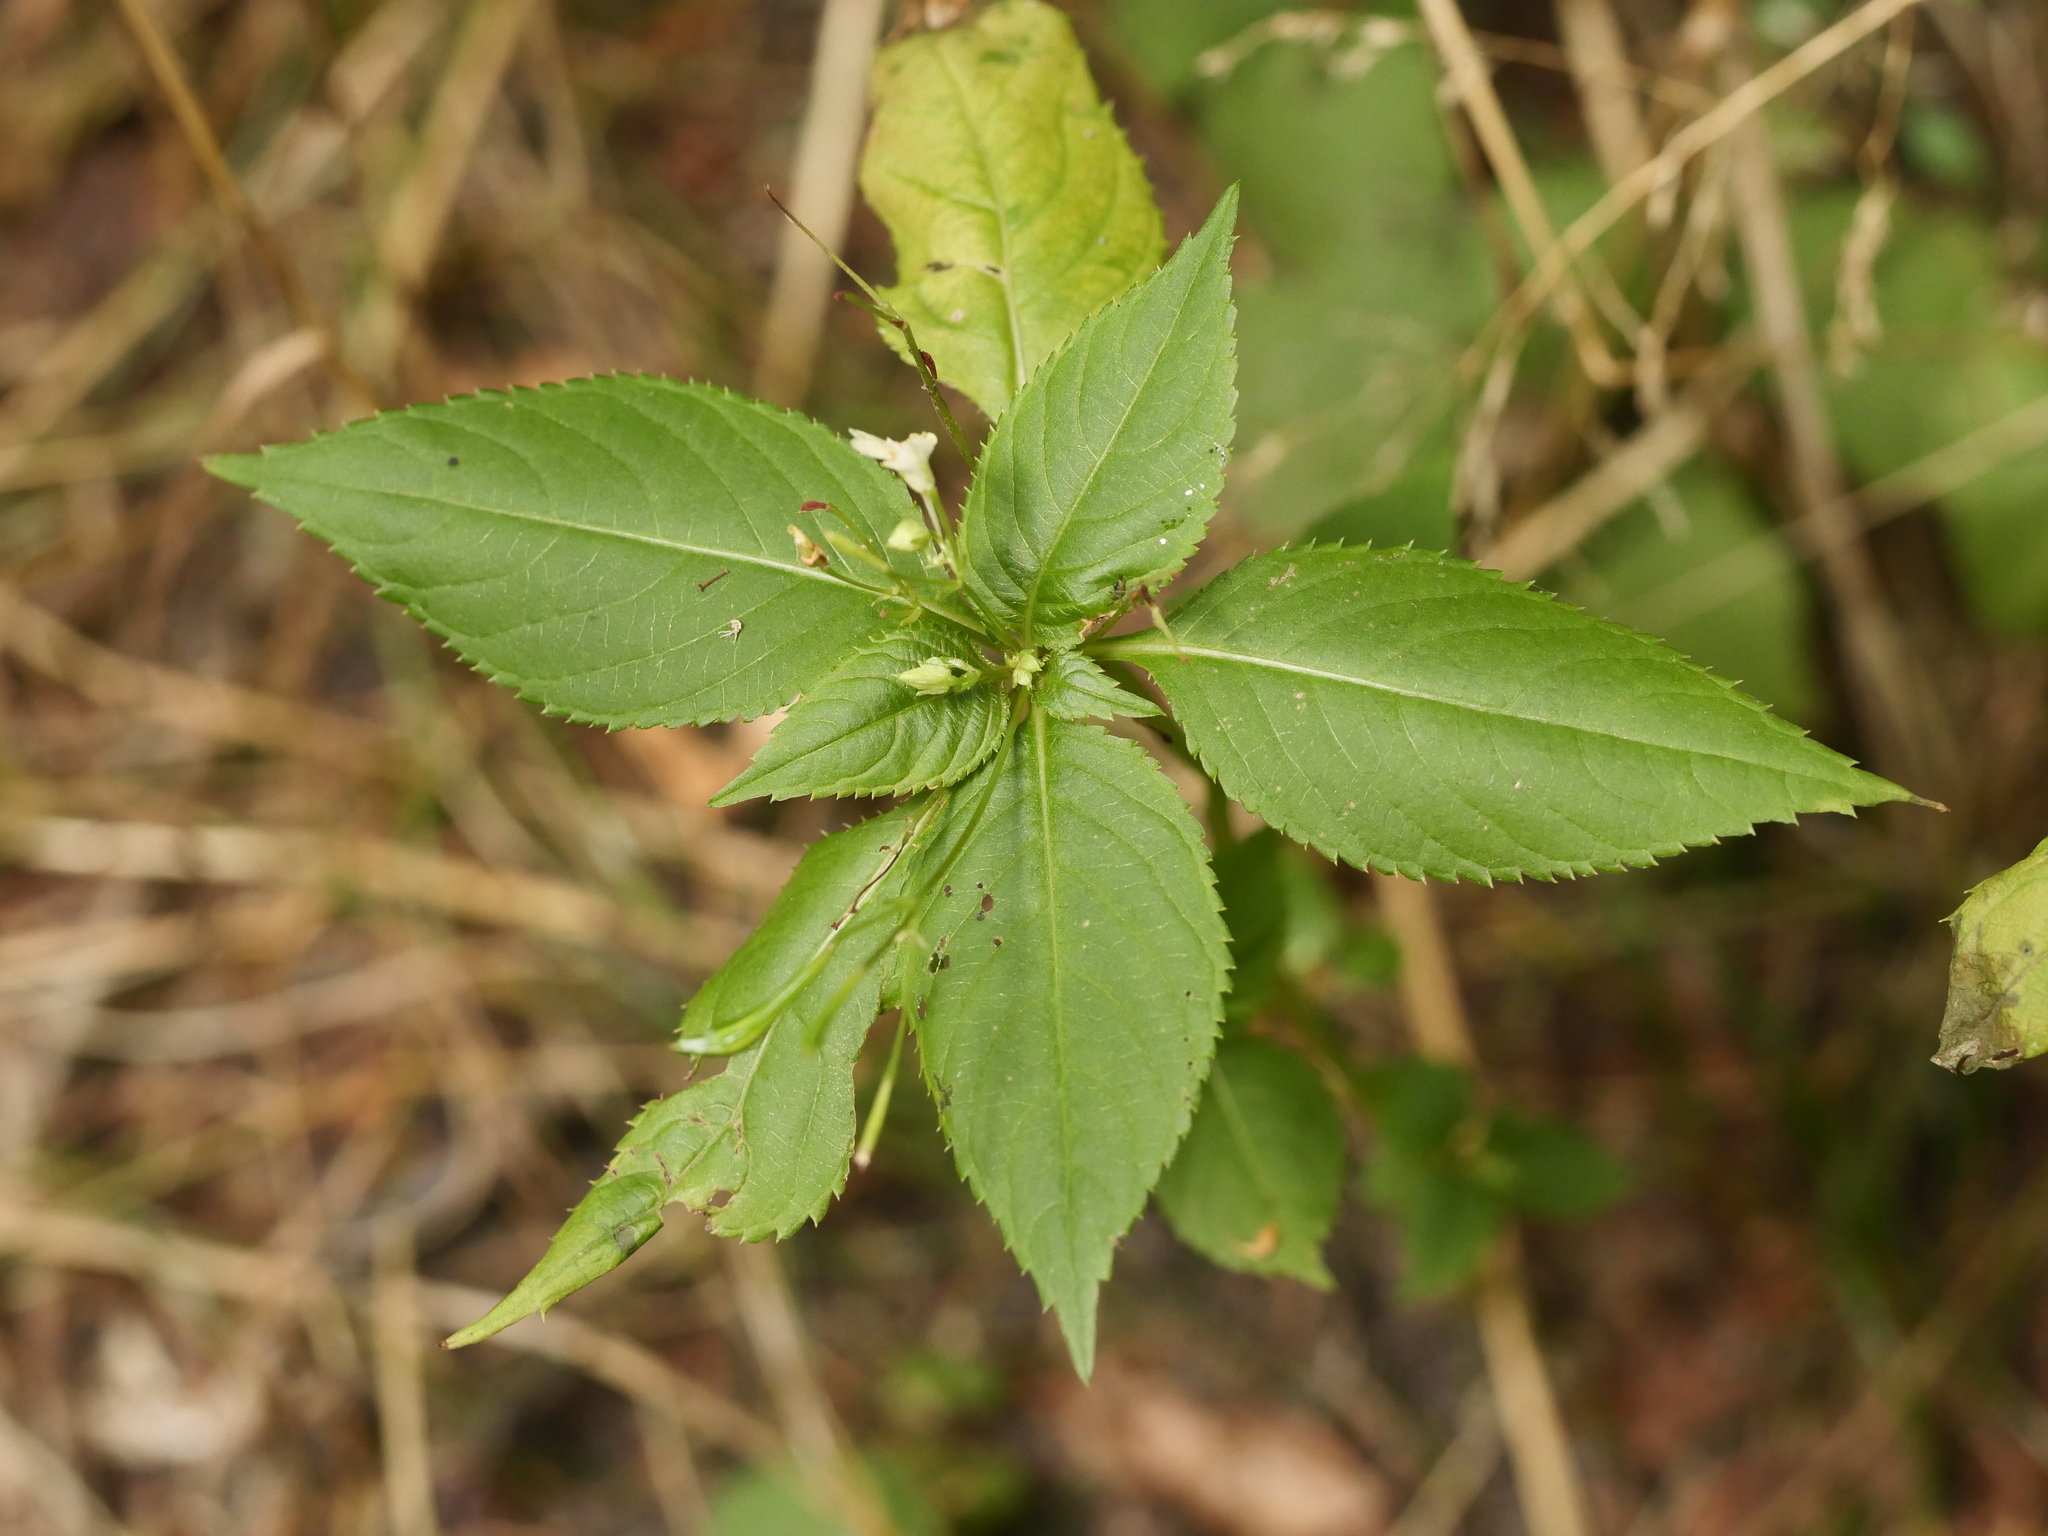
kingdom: Plantae
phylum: Tracheophyta
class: Magnoliopsida
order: Ericales
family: Balsaminaceae
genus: Impatiens
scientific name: Impatiens parviflora
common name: Small balsam
